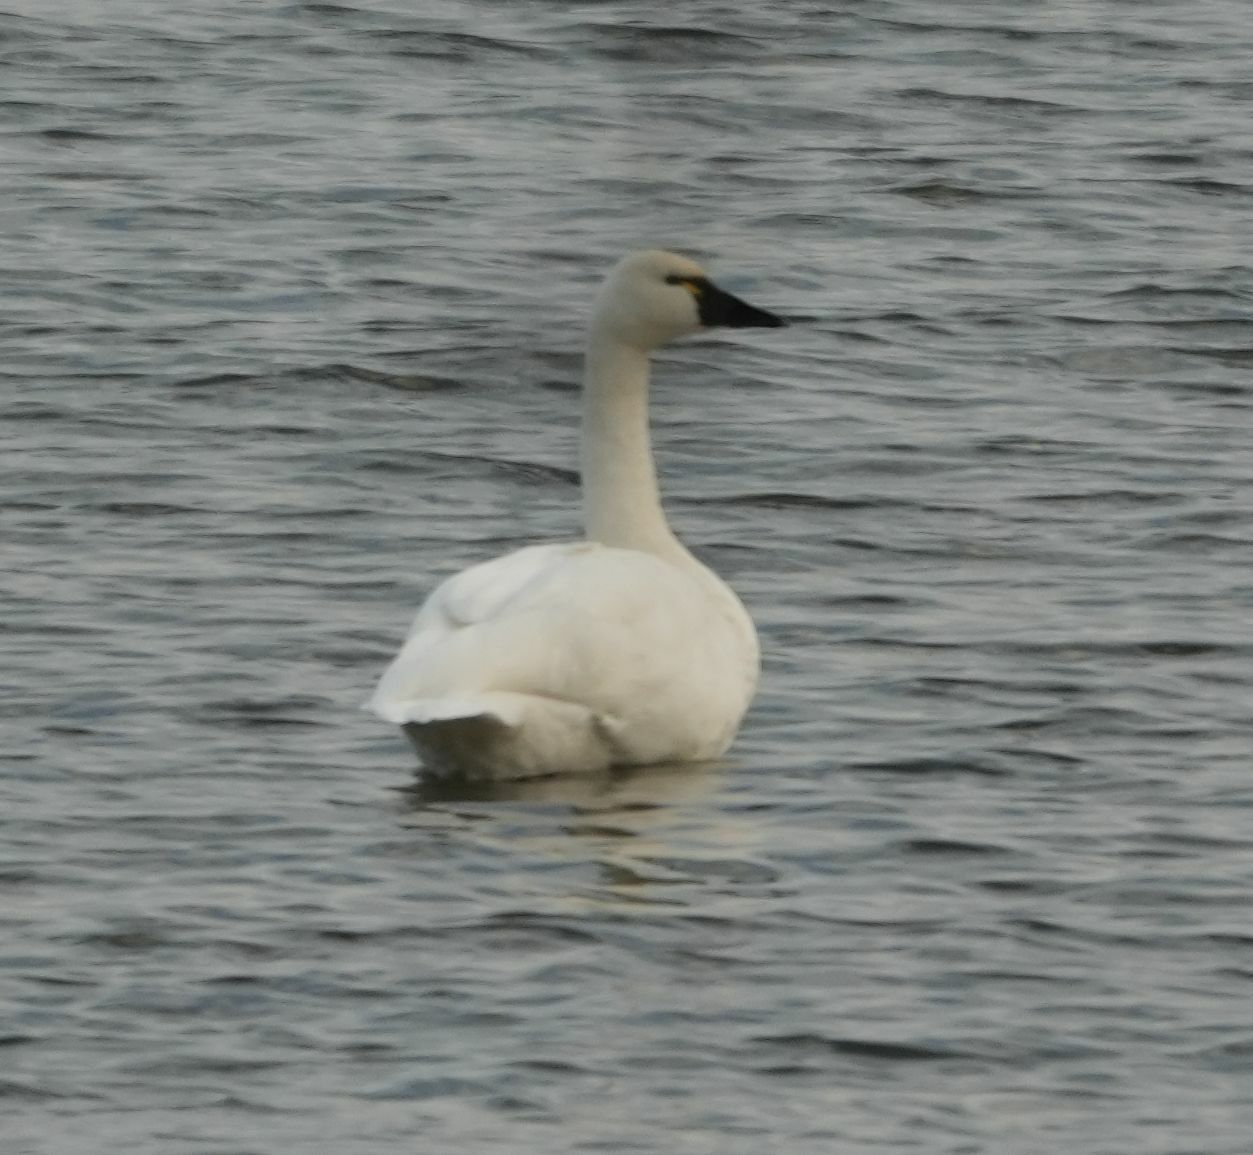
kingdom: Animalia
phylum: Chordata
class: Aves
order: Anseriformes
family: Anatidae
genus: Cygnus
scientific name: Cygnus columbianus
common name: Tundra swan
